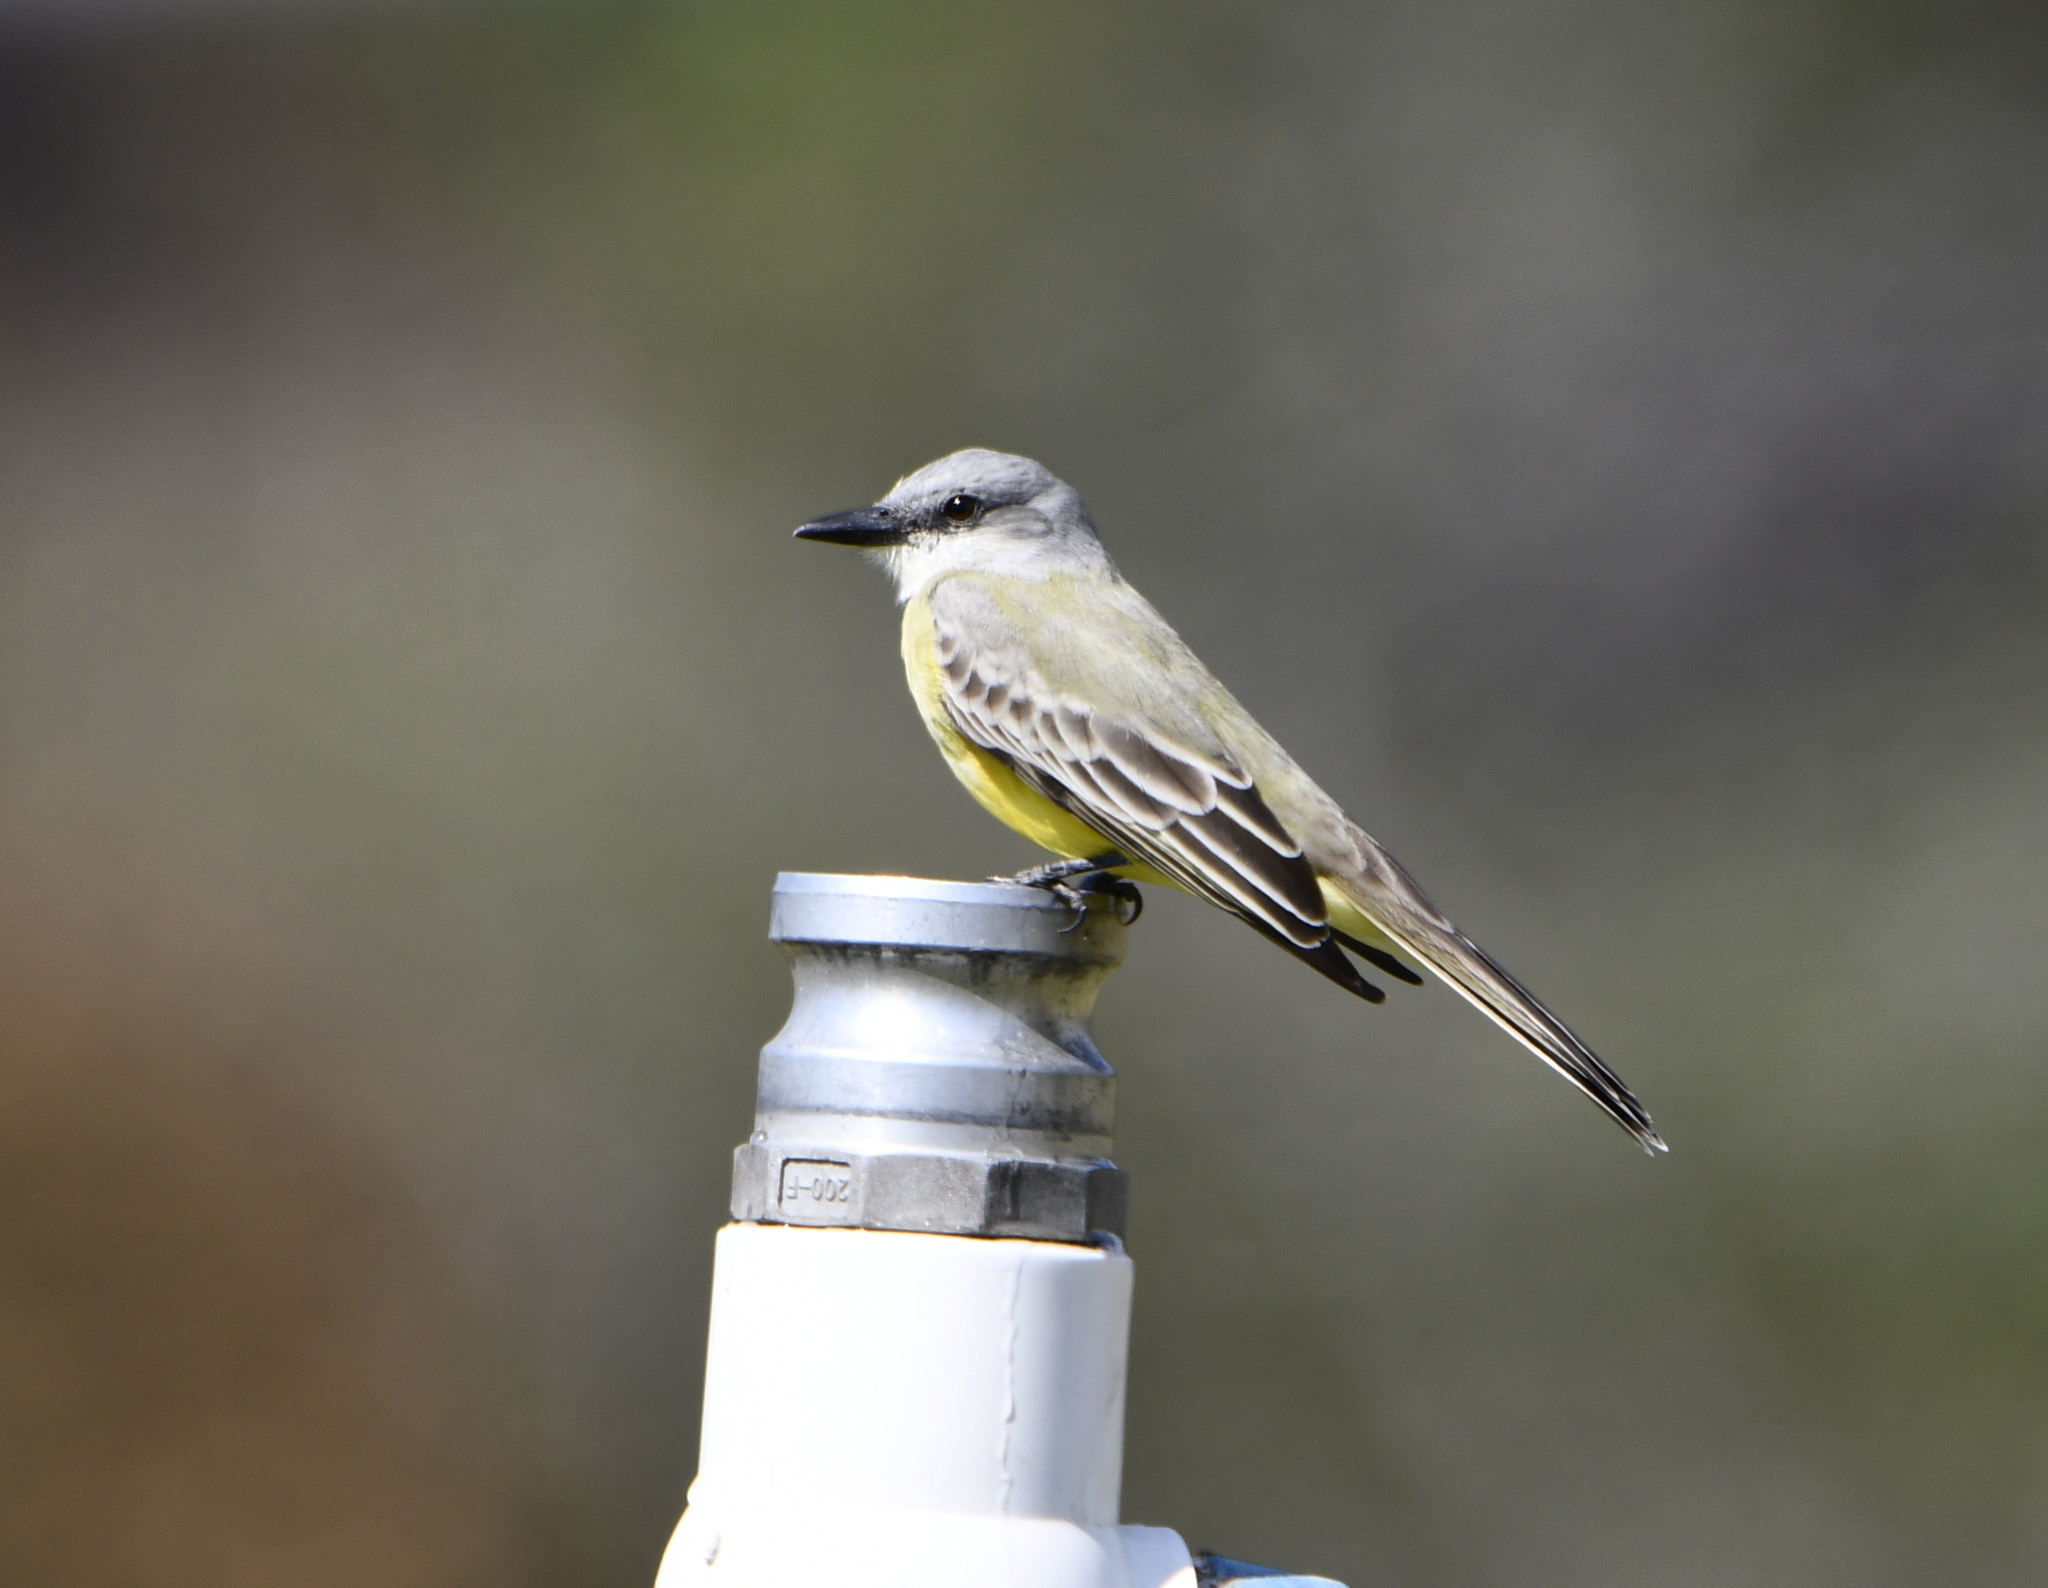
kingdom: Animalia
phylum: Chordata
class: Aves
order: Passeriformes
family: Tyrannidae
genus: Tyrannus
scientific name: Tyrannus melancholicus
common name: Tropical kingbird
